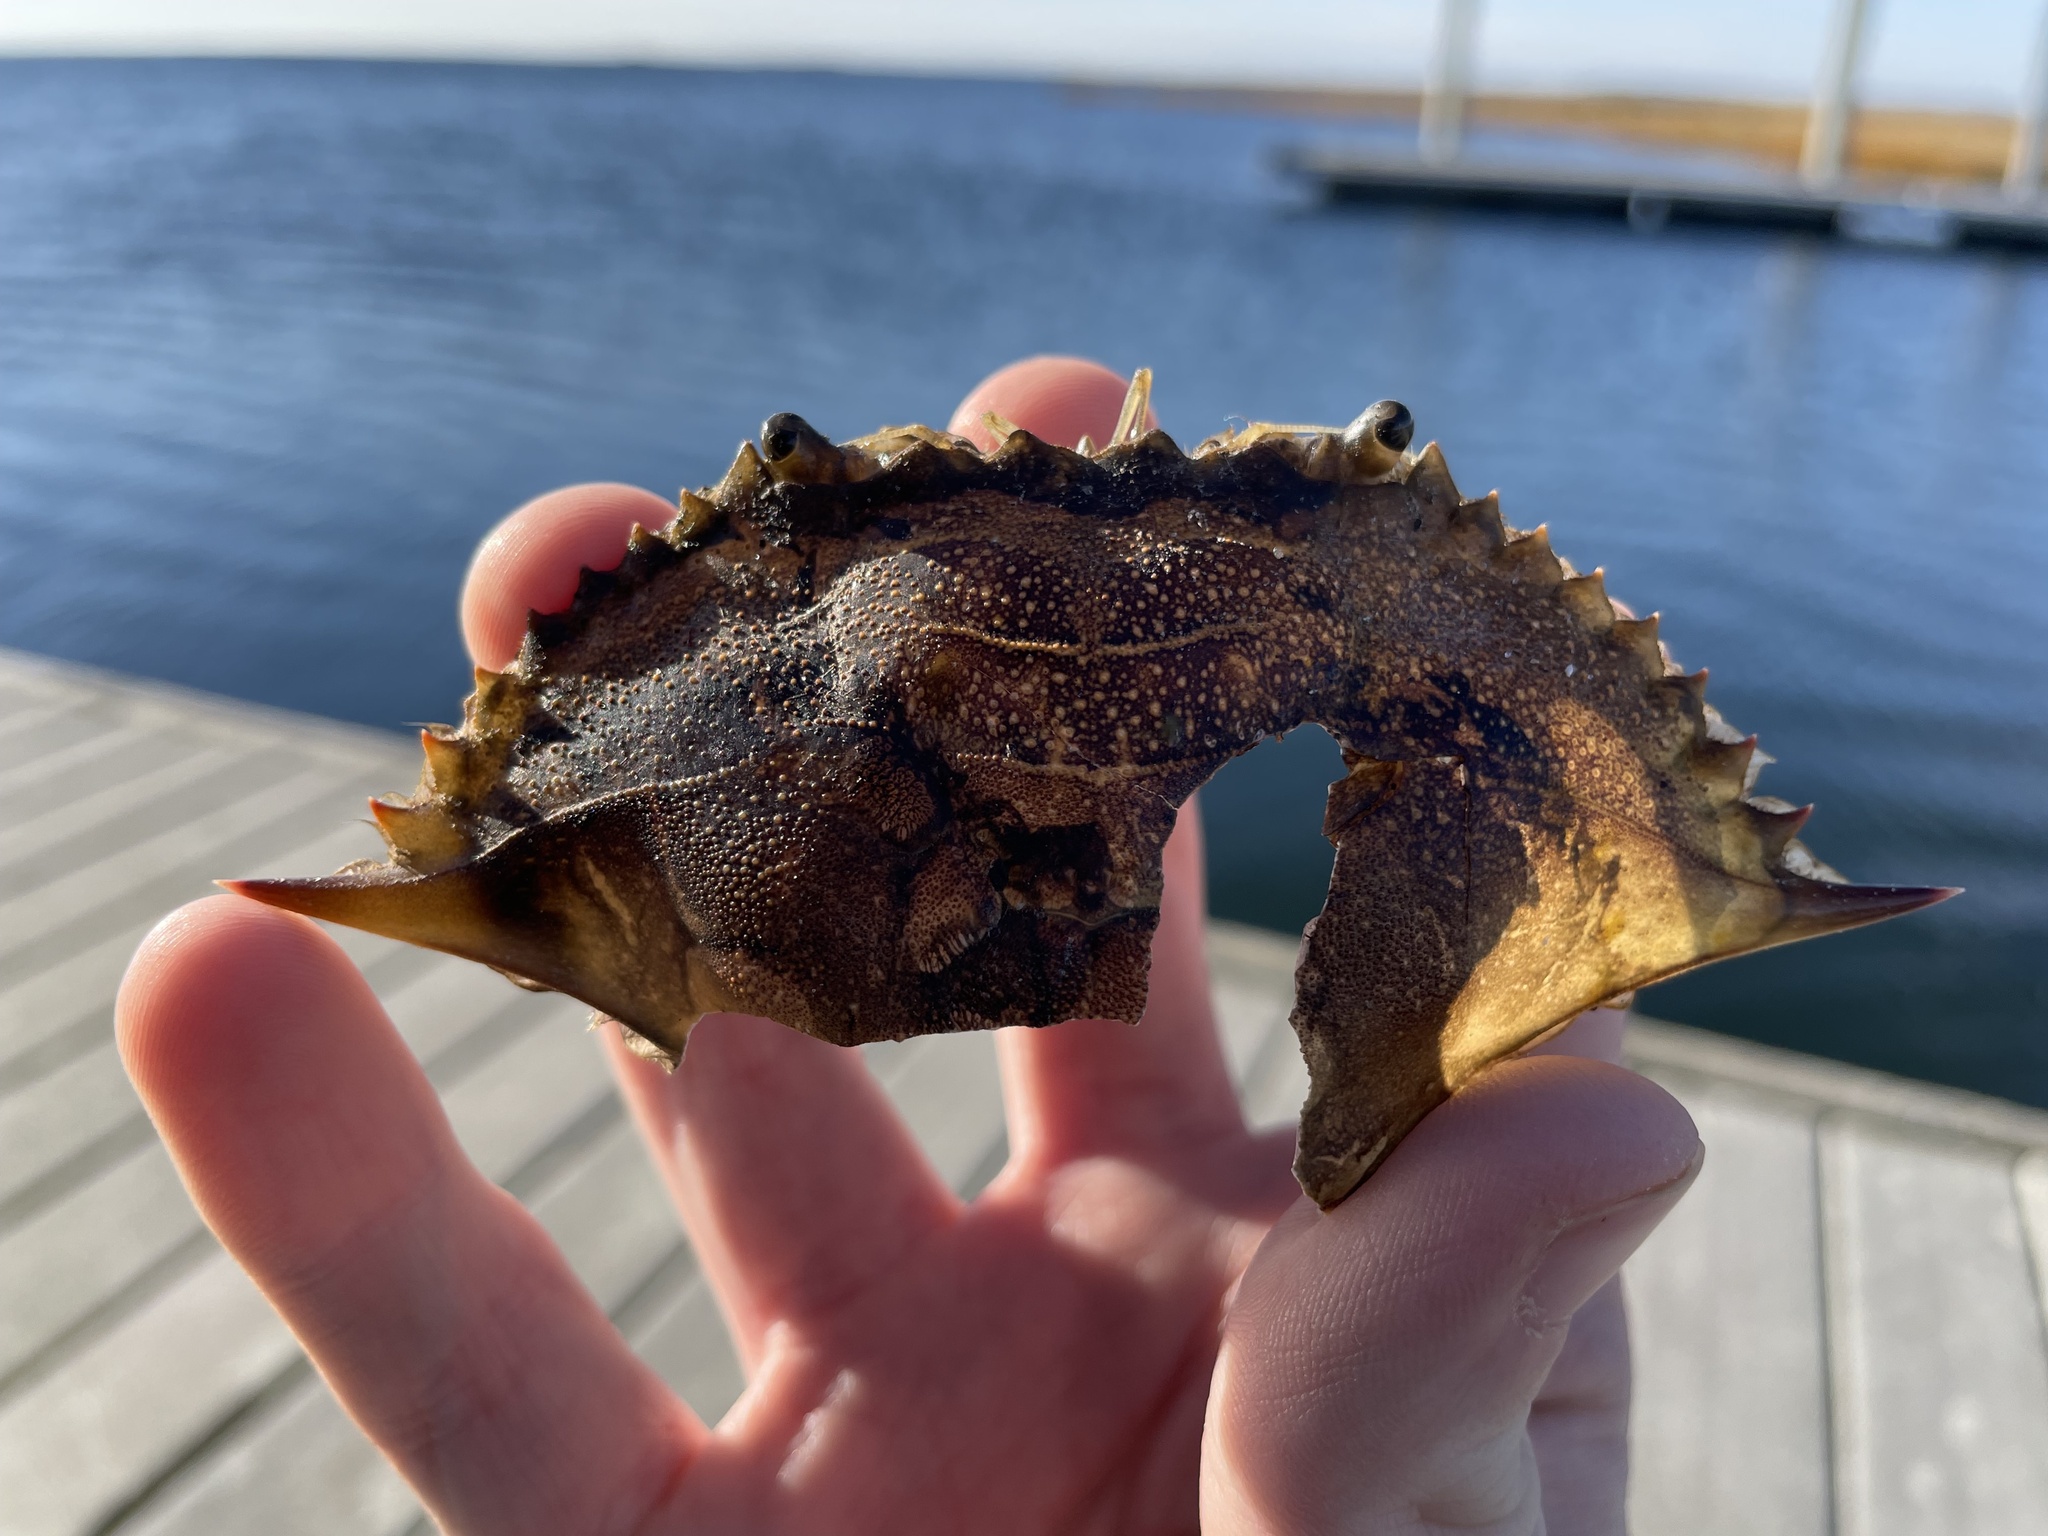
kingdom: Animalia
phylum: Arthropoda
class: Malacostraca
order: Decapoda
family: Portunidae
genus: Callinectes
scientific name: Callinectes sapidus
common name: Blue crab
